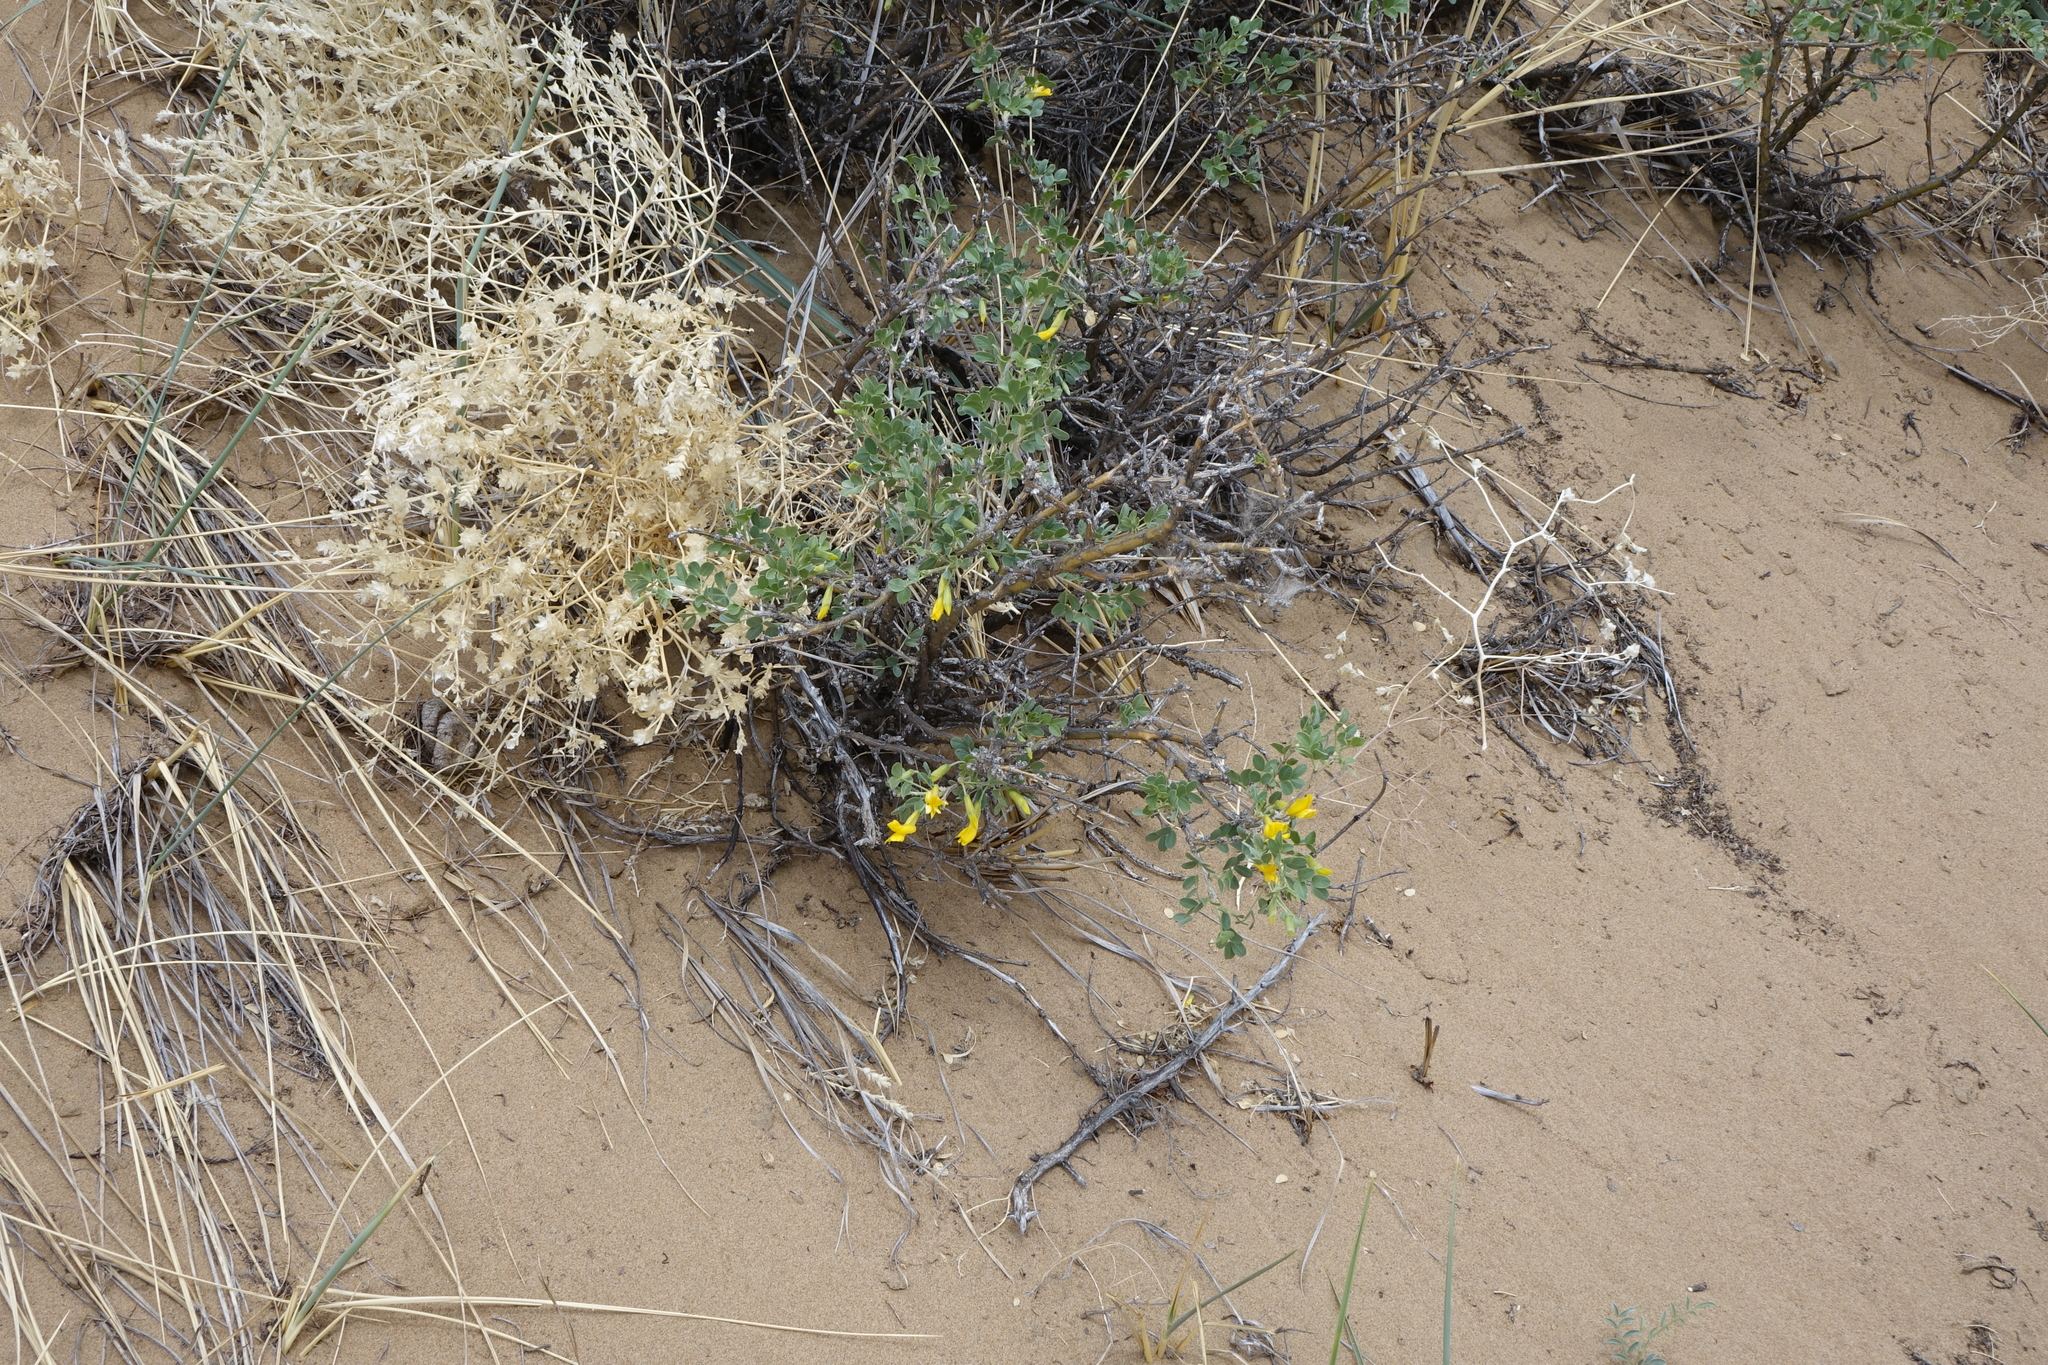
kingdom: Plantae
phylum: Tracheophyta
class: Magnoliopsida
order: Fabales
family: Fabaceae
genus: Caragana
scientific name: Caragana bungei
